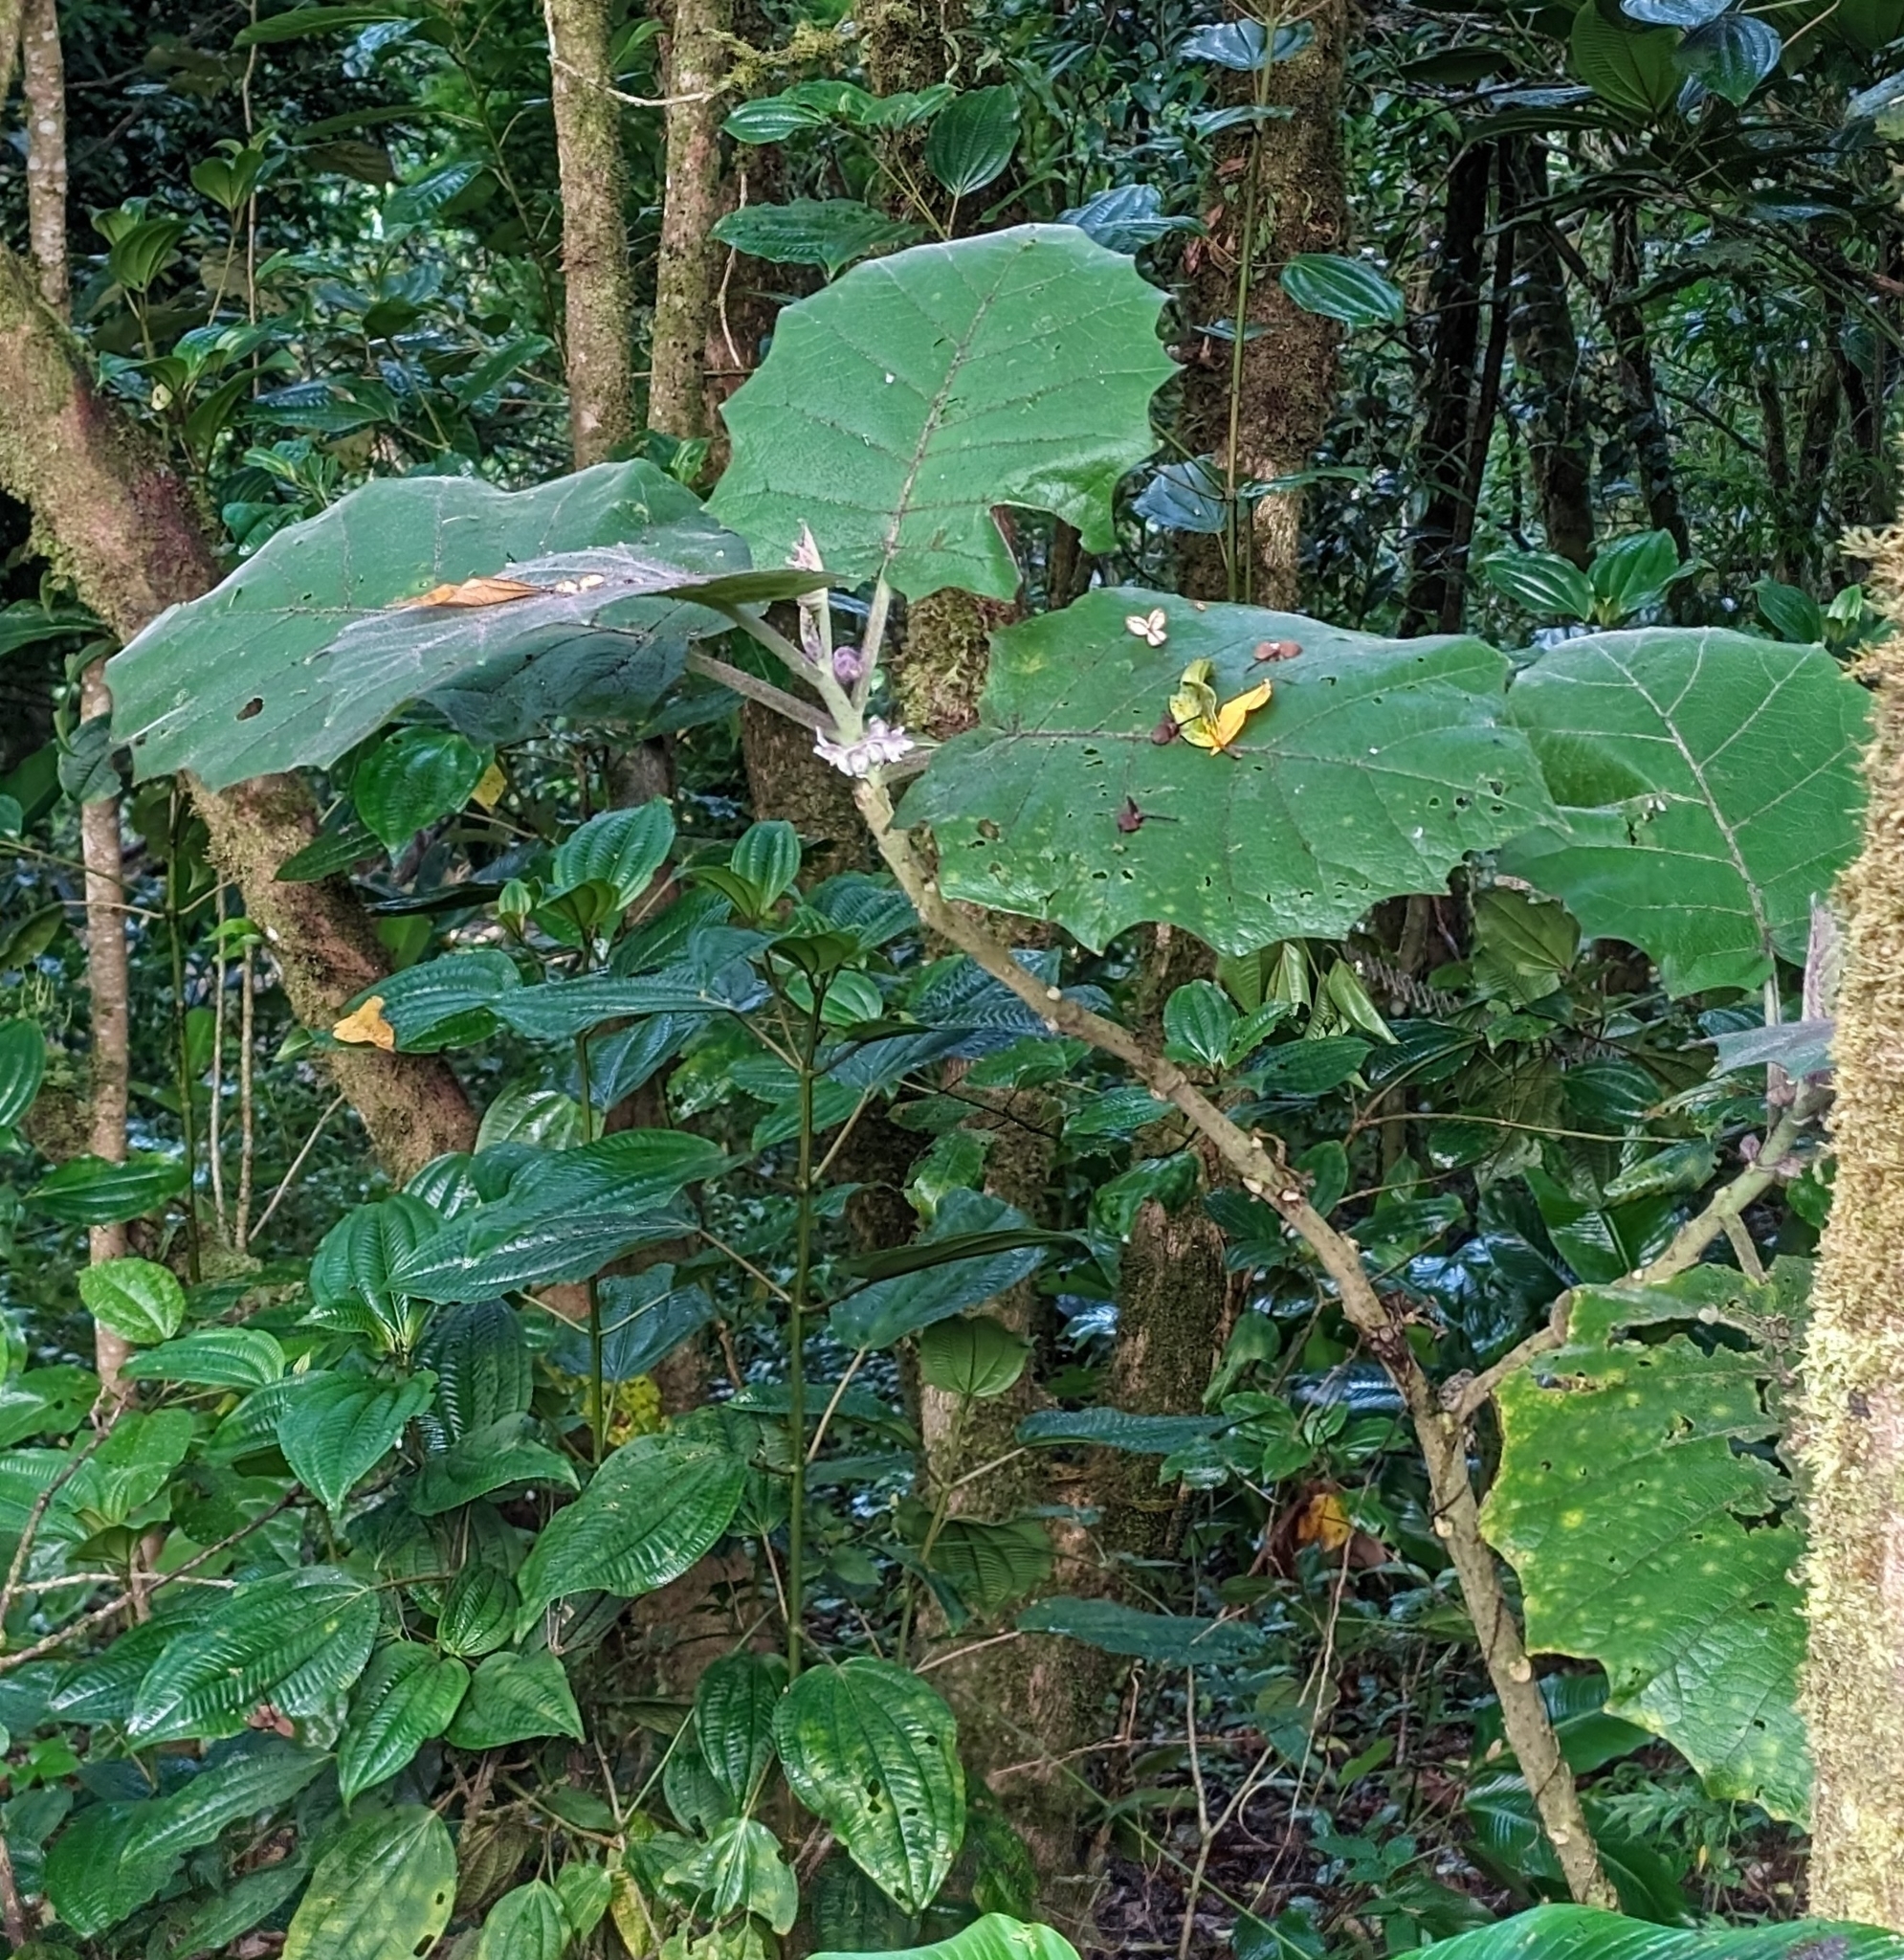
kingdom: Plantae
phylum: Tracheophyta
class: Magnoliopsida
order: Solanales
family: Solanaceae
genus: Solanum
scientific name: Solanum quitoense
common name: Quito-orange
